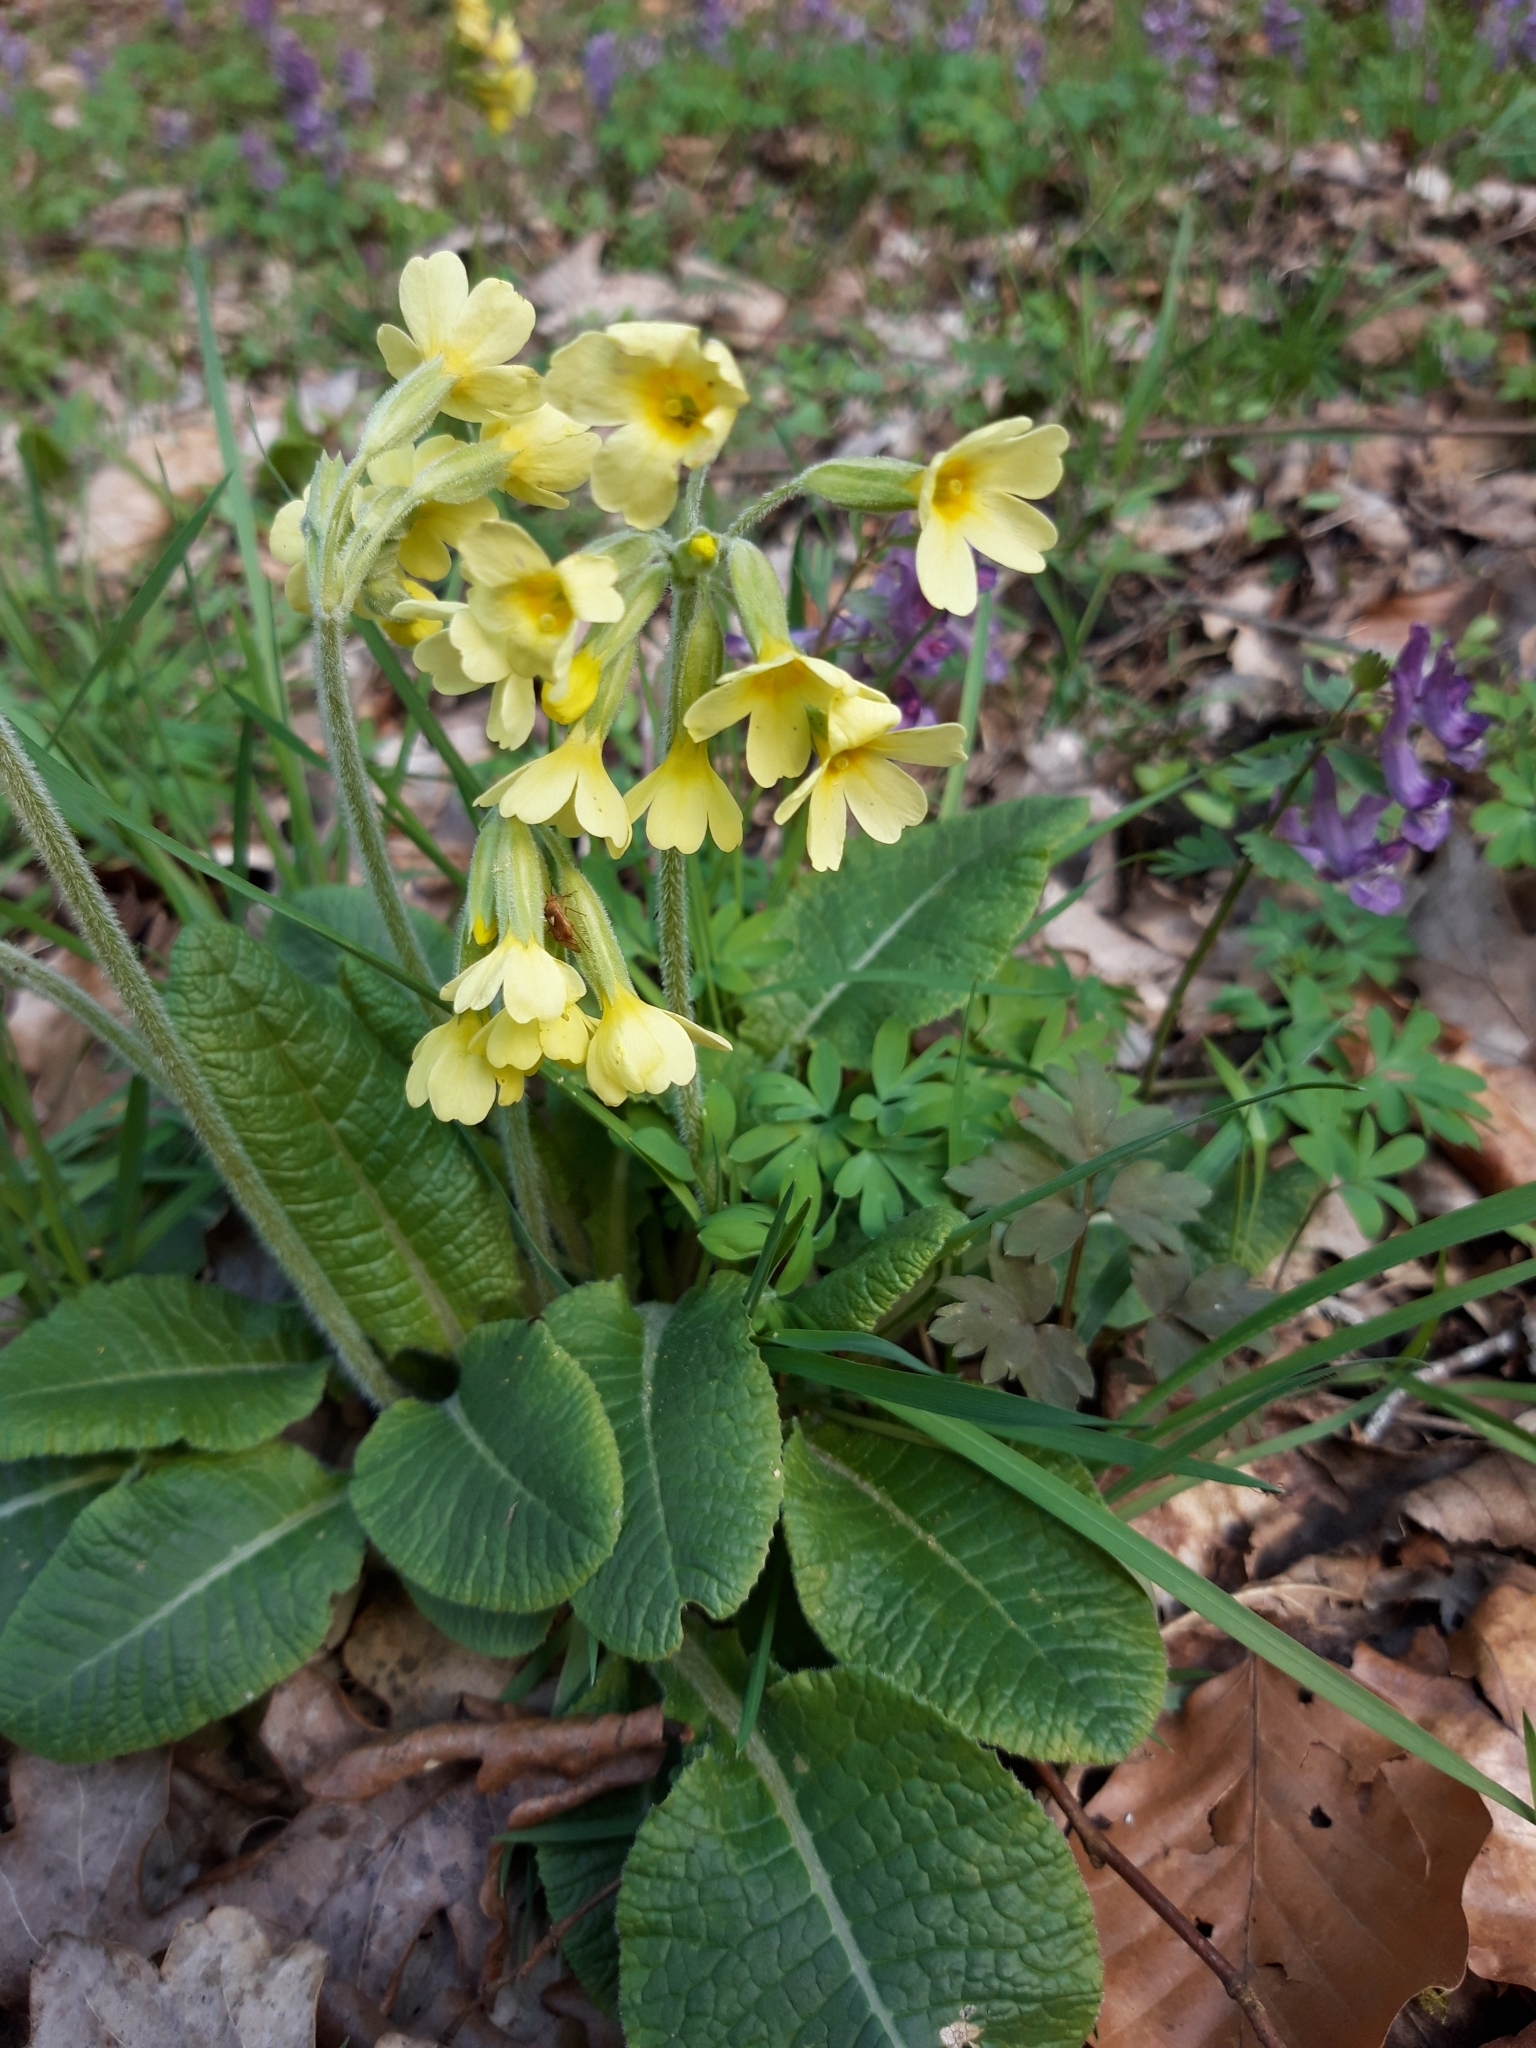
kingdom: Plantae
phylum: Tracheophyta
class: Magnoliopsida
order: Ericales
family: Primulaceae
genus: Primula
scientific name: Primula elatior
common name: Oxlip
